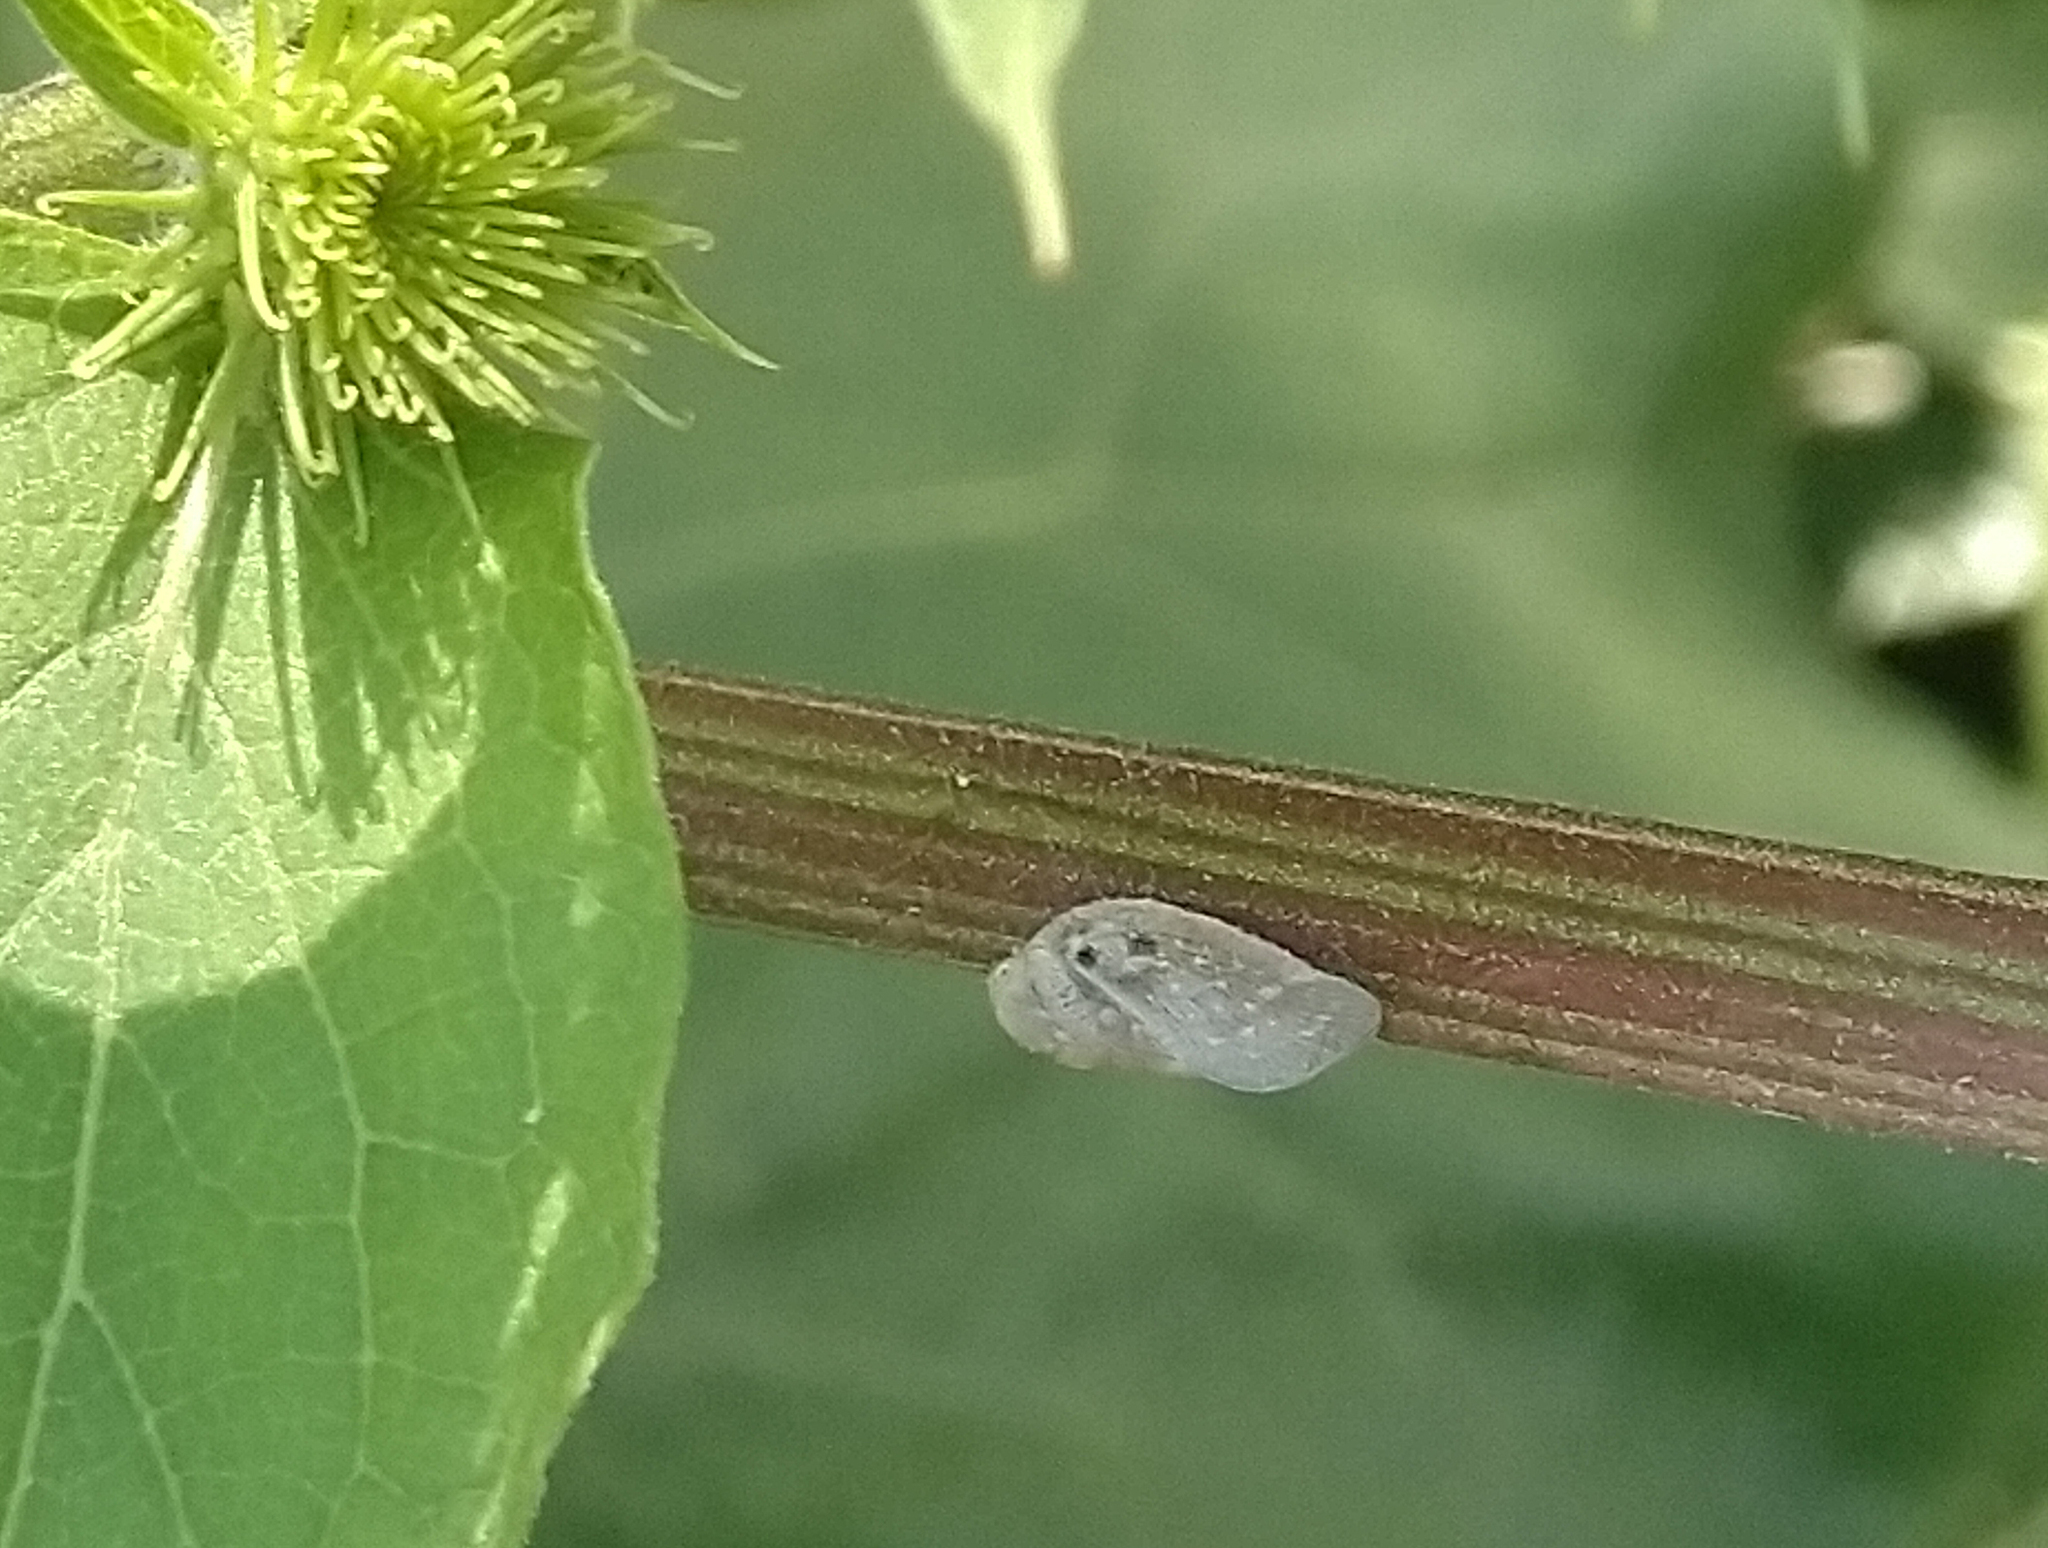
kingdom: Animalia
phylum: Arthropoda
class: Insecta
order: Hemiptera
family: Flatidae
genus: Metcalfa
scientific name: Metcalfa pruinosa
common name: Citrus flatid planthopper
